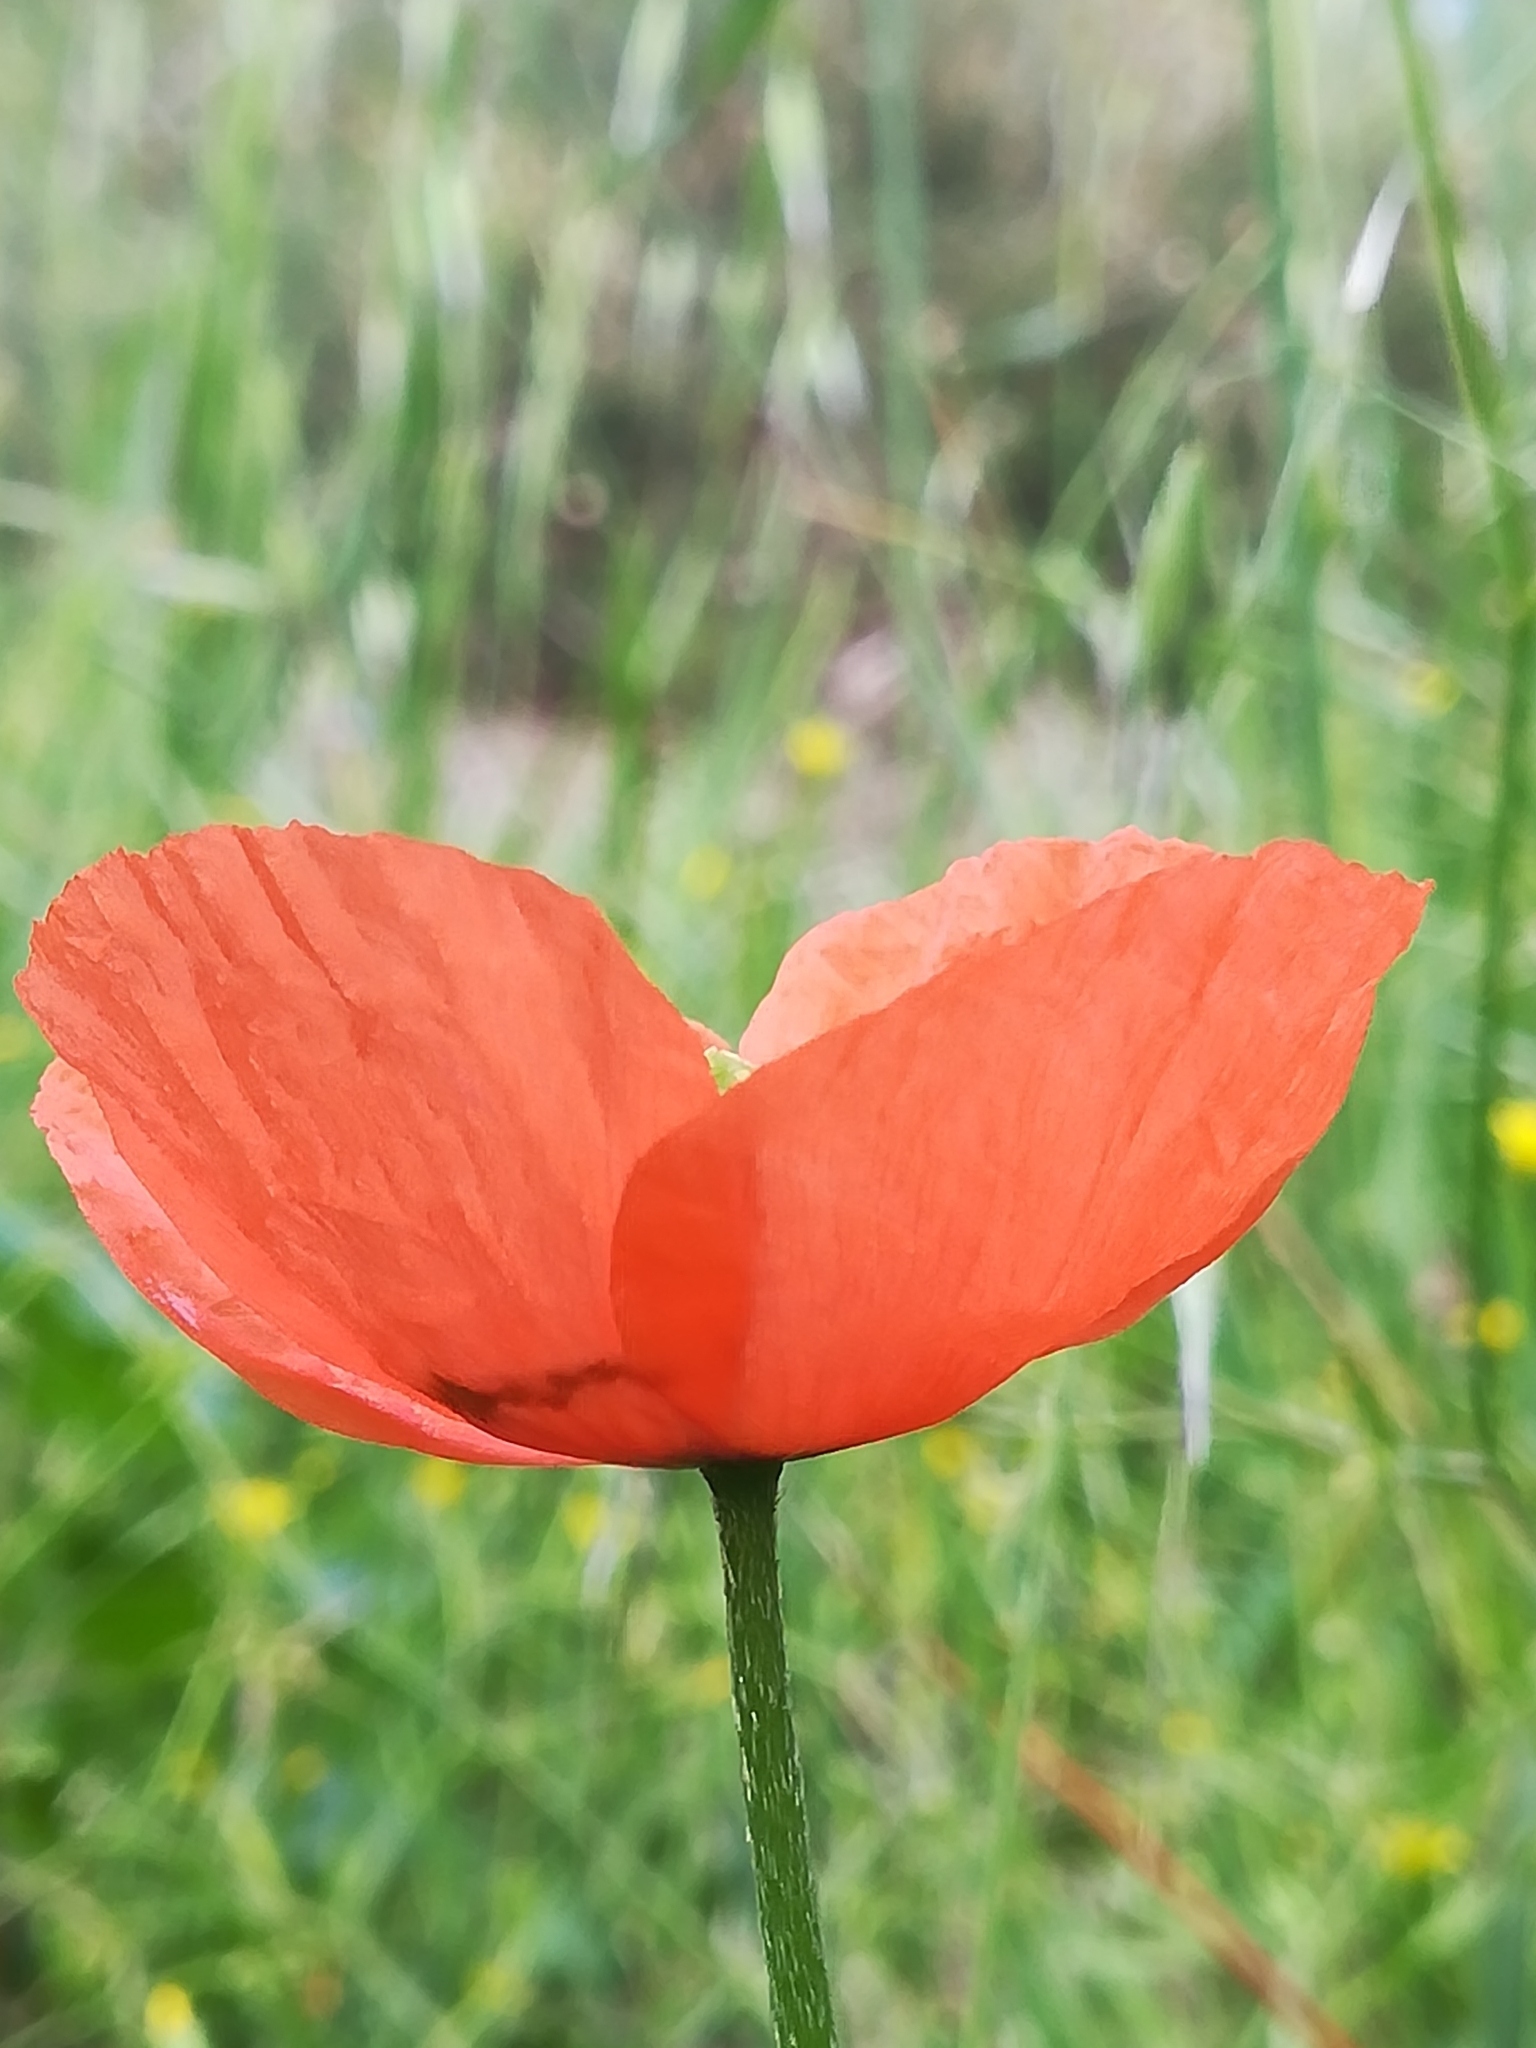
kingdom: Plantae
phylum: Tracheophyta
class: Magnoliopsida
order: Ranunculales
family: Papaveraceae
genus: Papaver
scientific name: Papaver rhoeas
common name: Corn poppy
